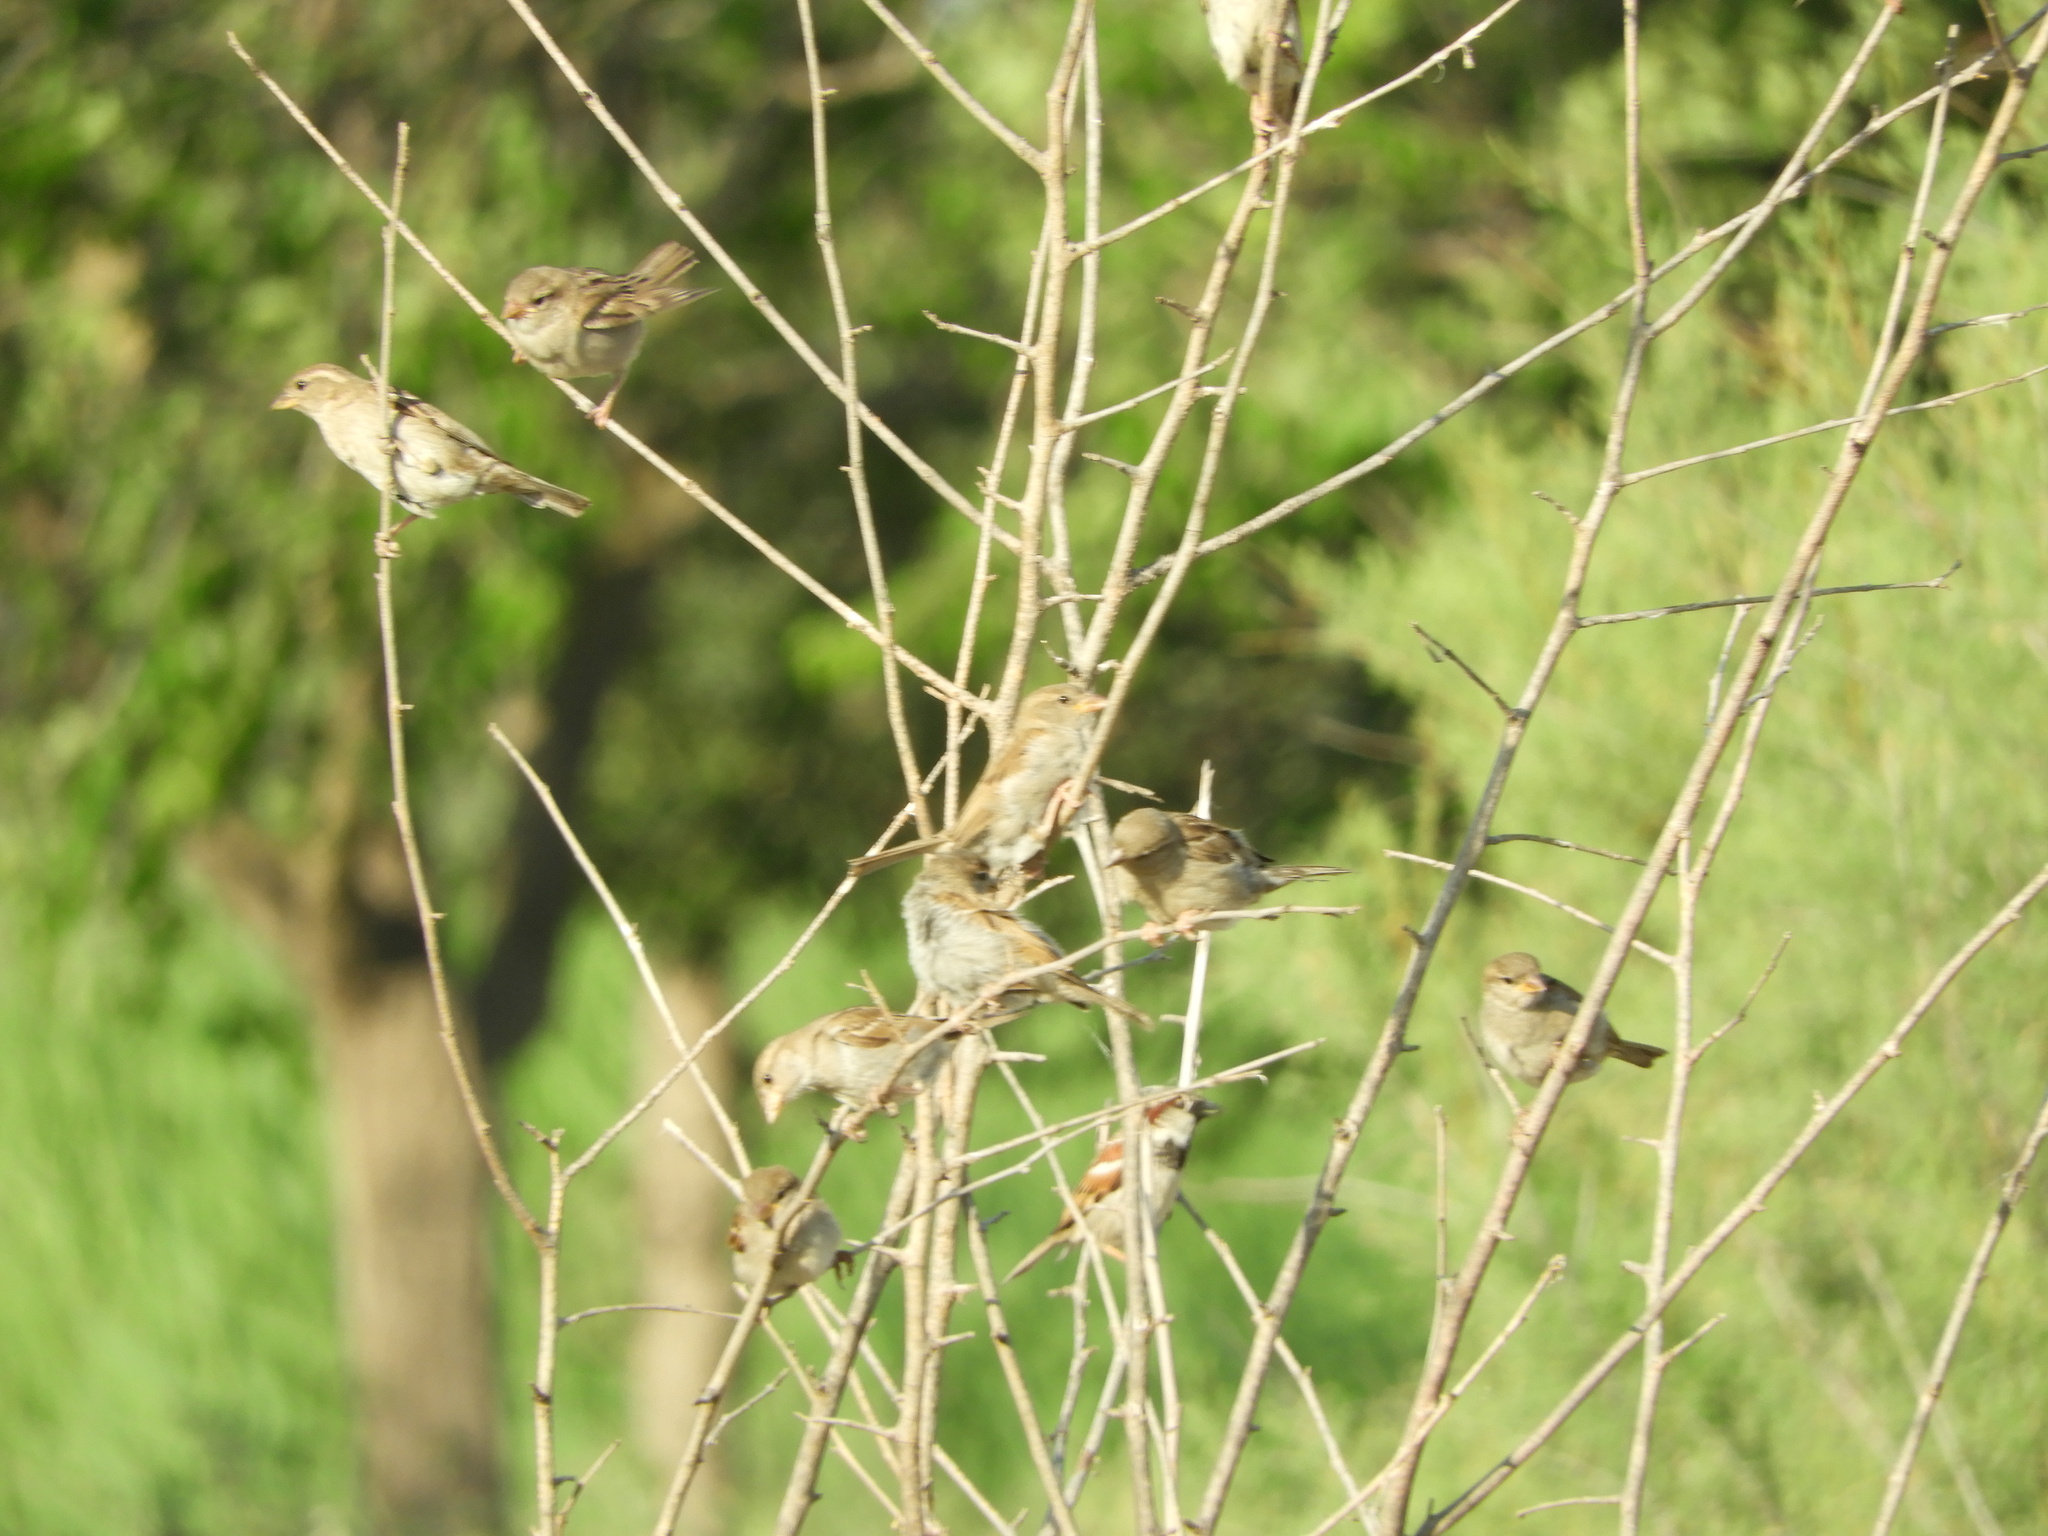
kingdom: Animalia
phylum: Chordata
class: Aves
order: Passeriformes
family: Passeridae
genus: Passer
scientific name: Passer domesticus
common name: House sparrow
